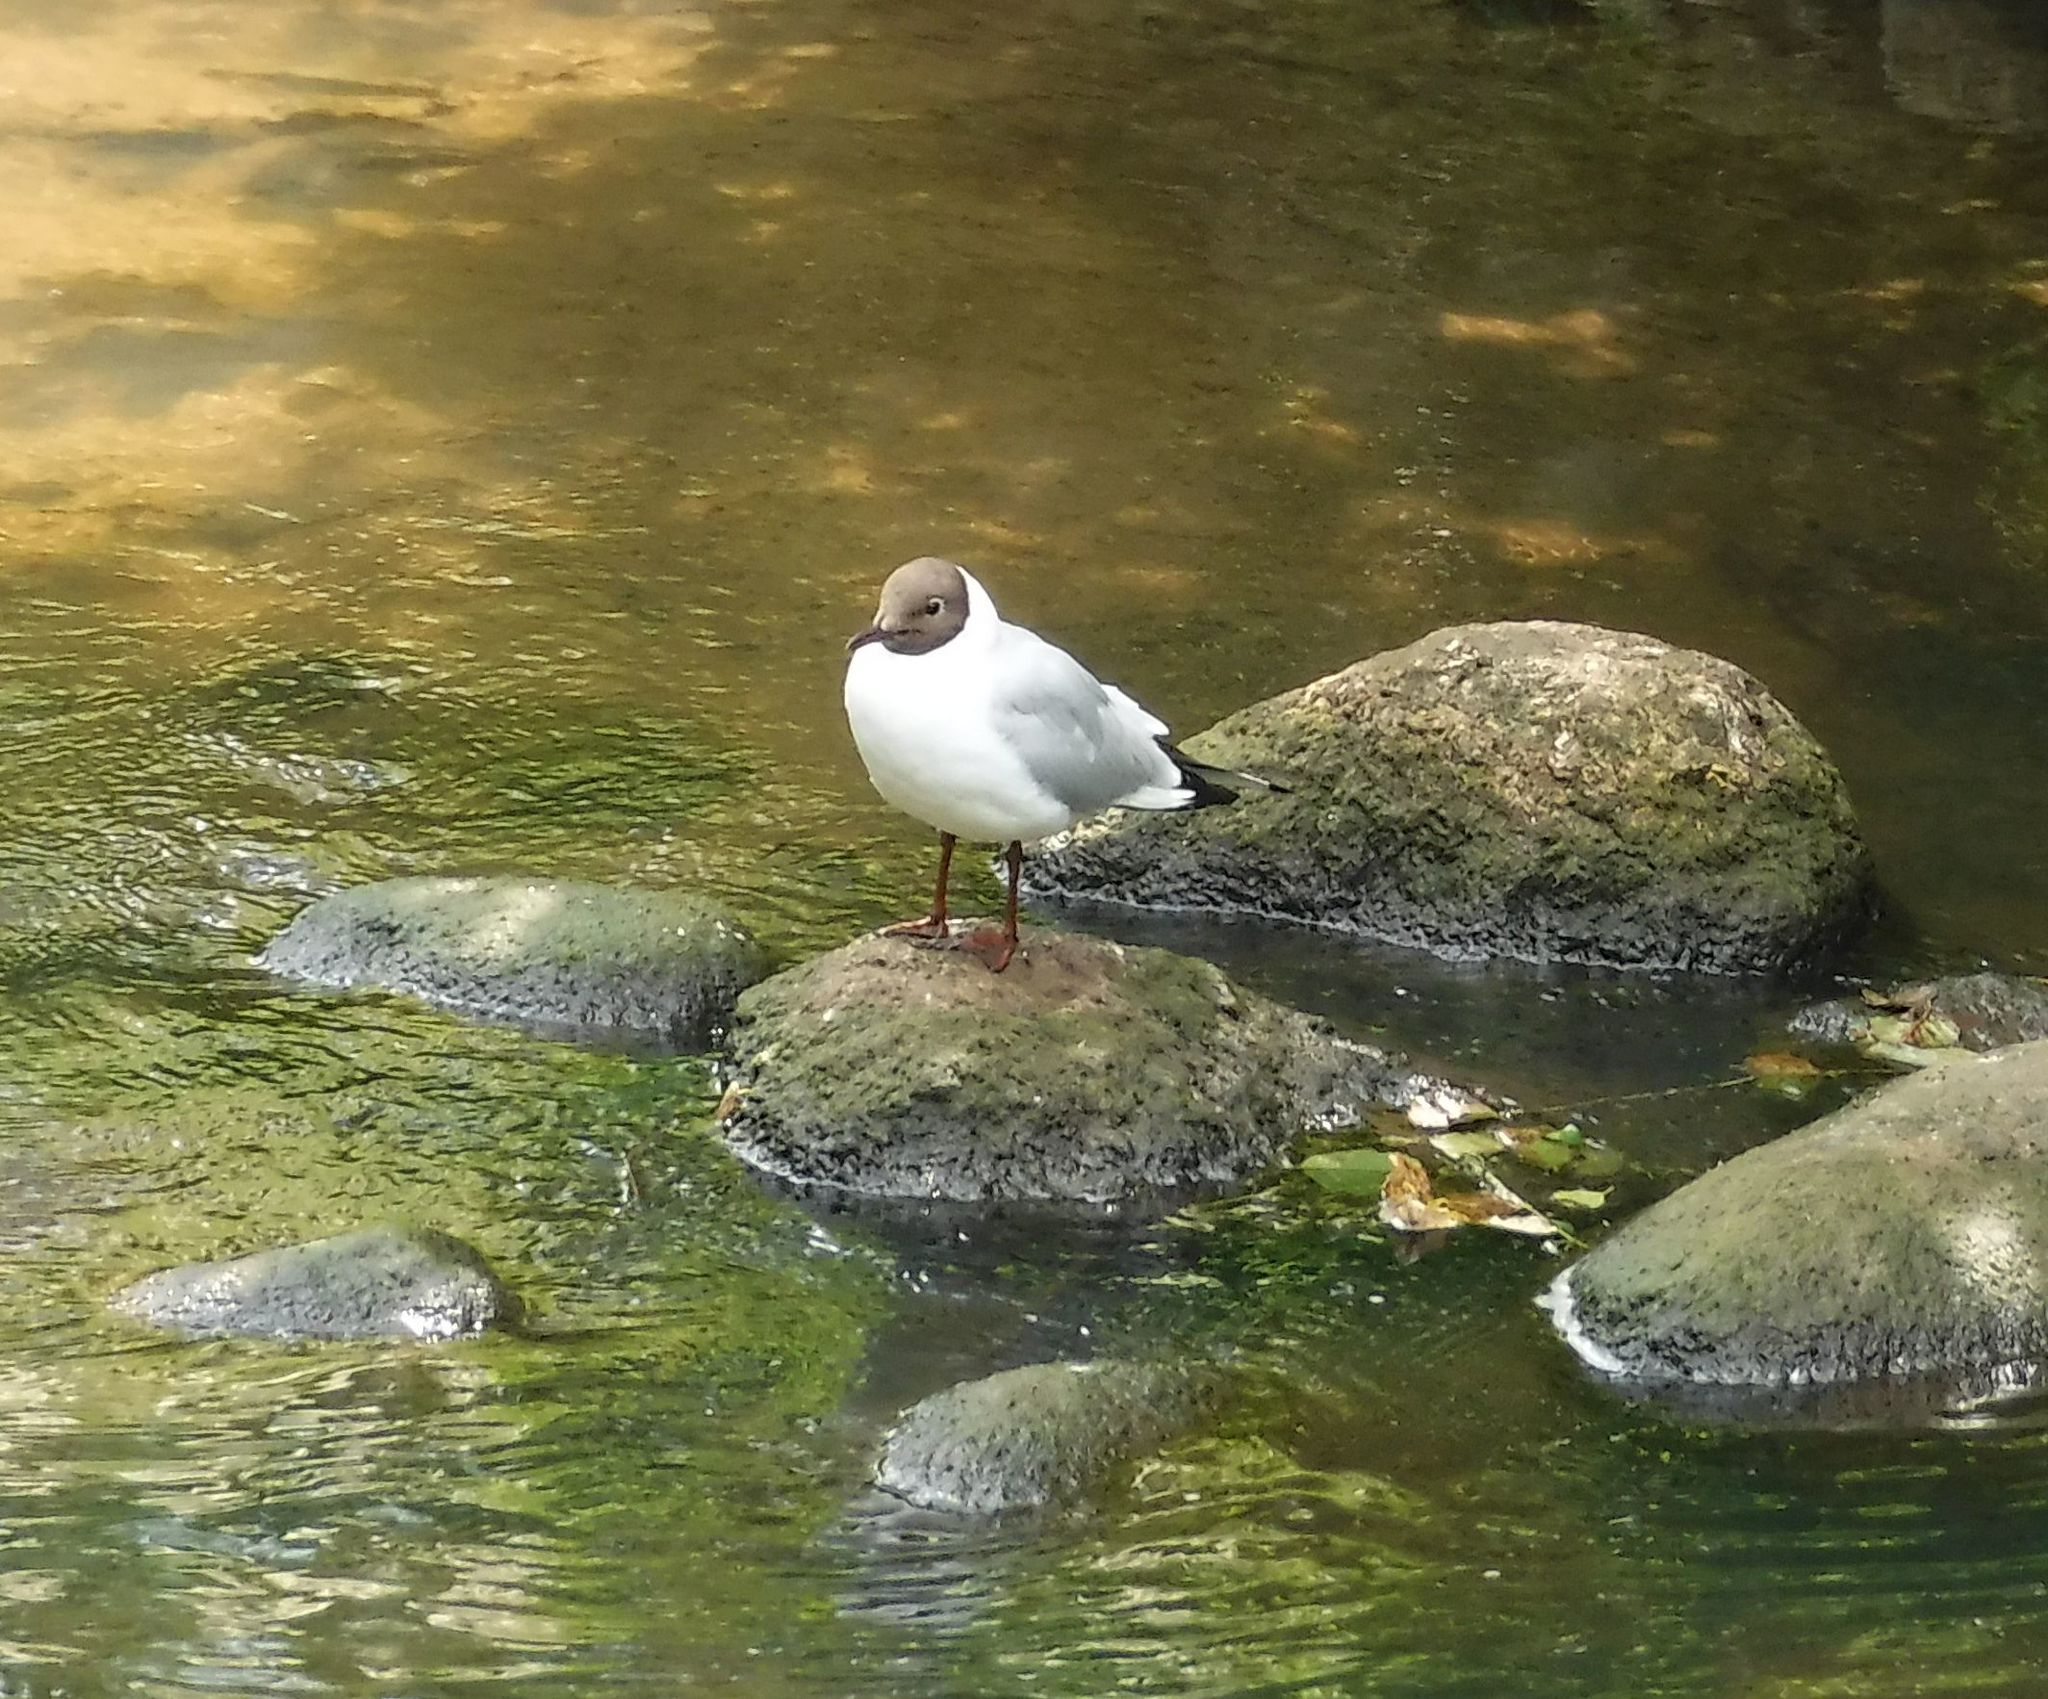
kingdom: Animalia
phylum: Chordata
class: Aves
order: Charadriiformes
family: Laridae
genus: Chroicocephalus
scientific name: Chroicocephalus ridibundus
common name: Black-headed gull
